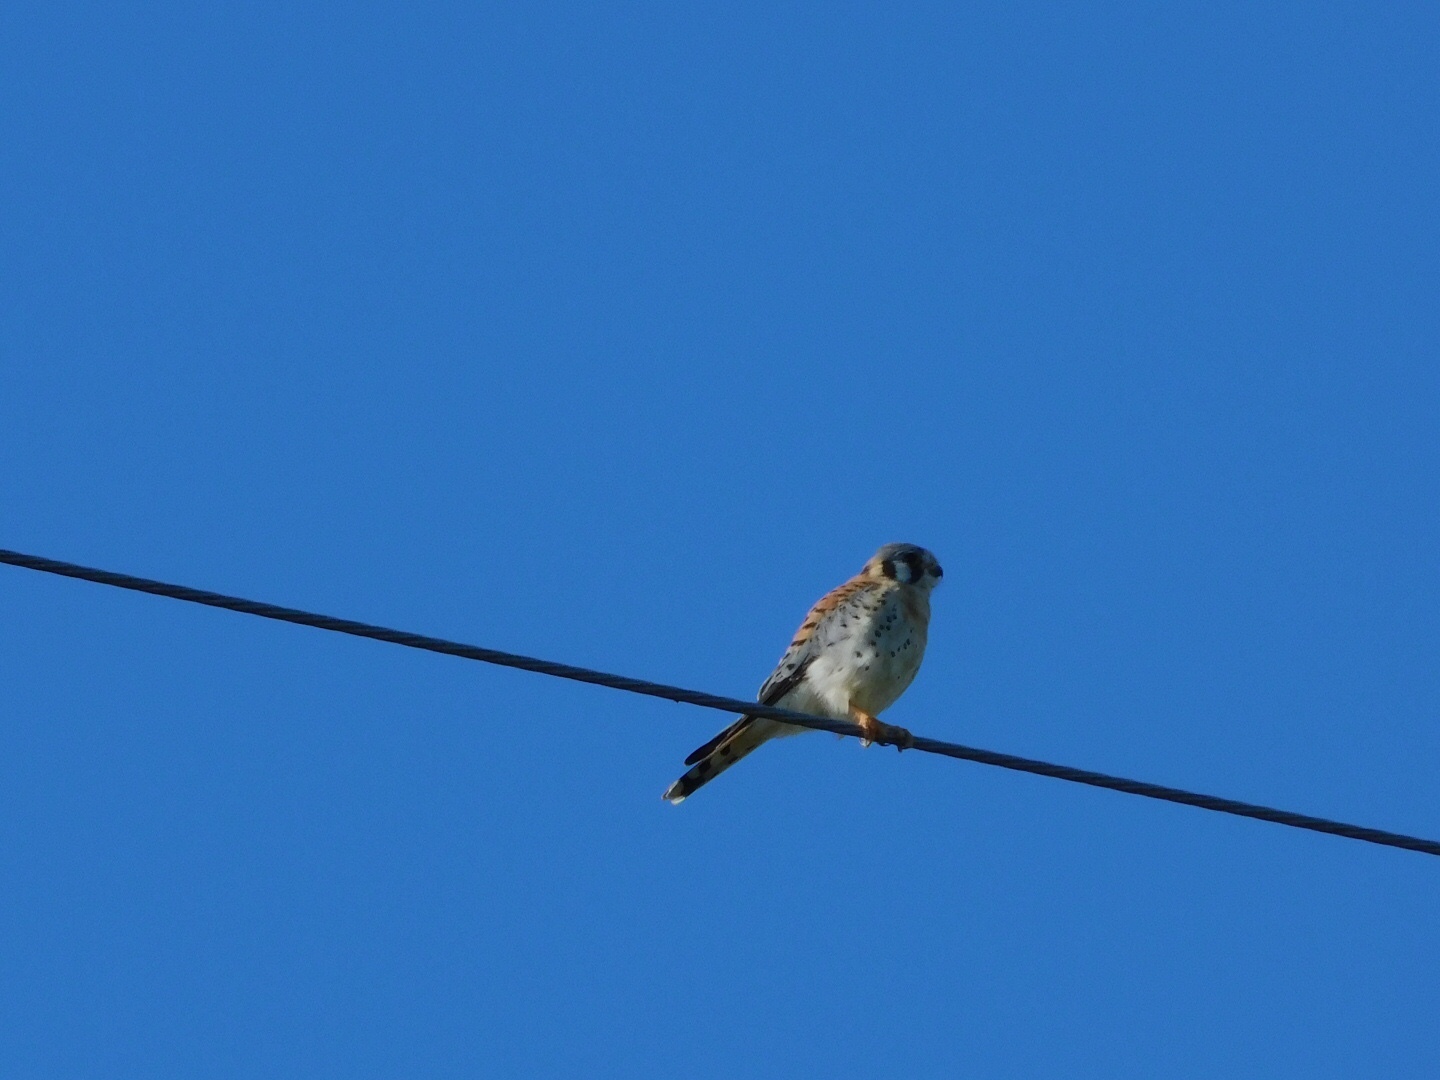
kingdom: Animalia
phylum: Chordata
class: Aves
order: Falconiformes
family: Falconidae
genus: Falco
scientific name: Falco sparverius
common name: American kestrel
